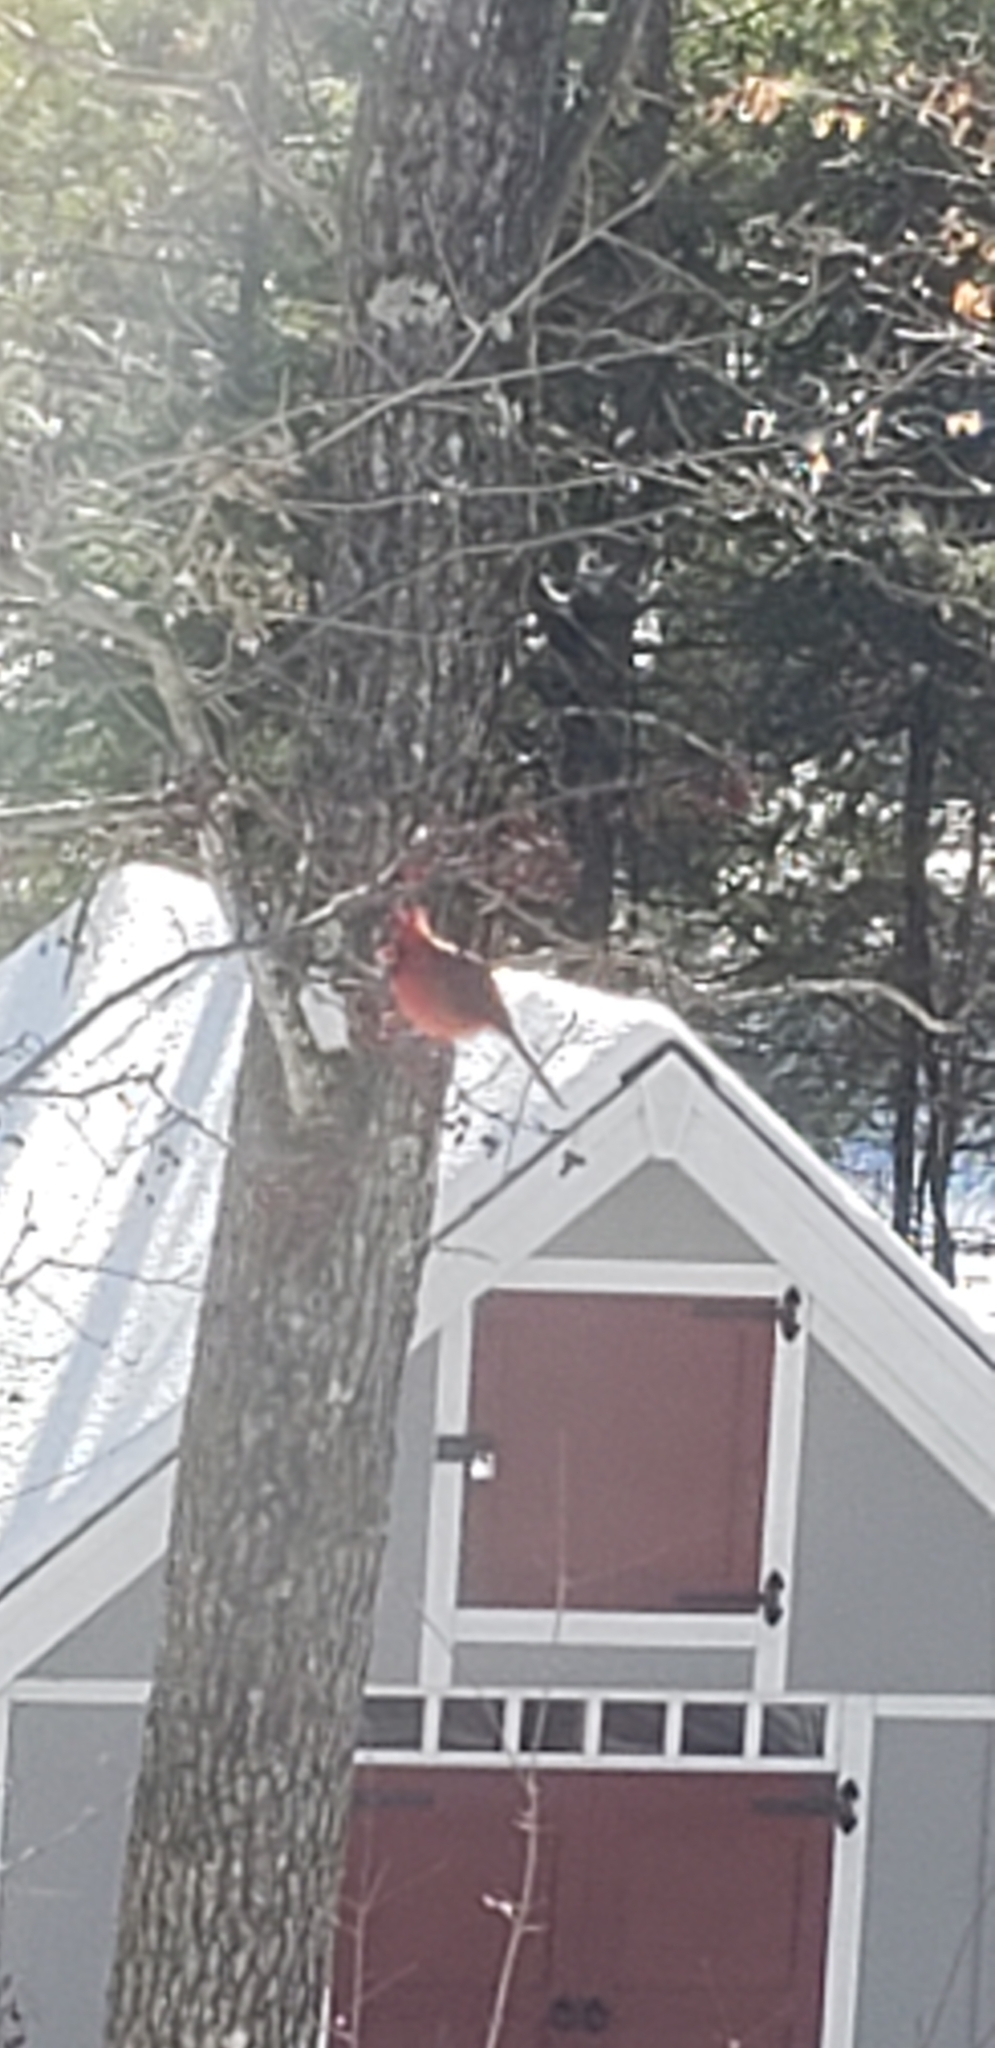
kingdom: Animalia
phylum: Chordata
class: Aves
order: Passeriformes
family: Cardinalidae
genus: Cardinalis
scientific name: Cardinalis cardinalis
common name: Northern cardinal
